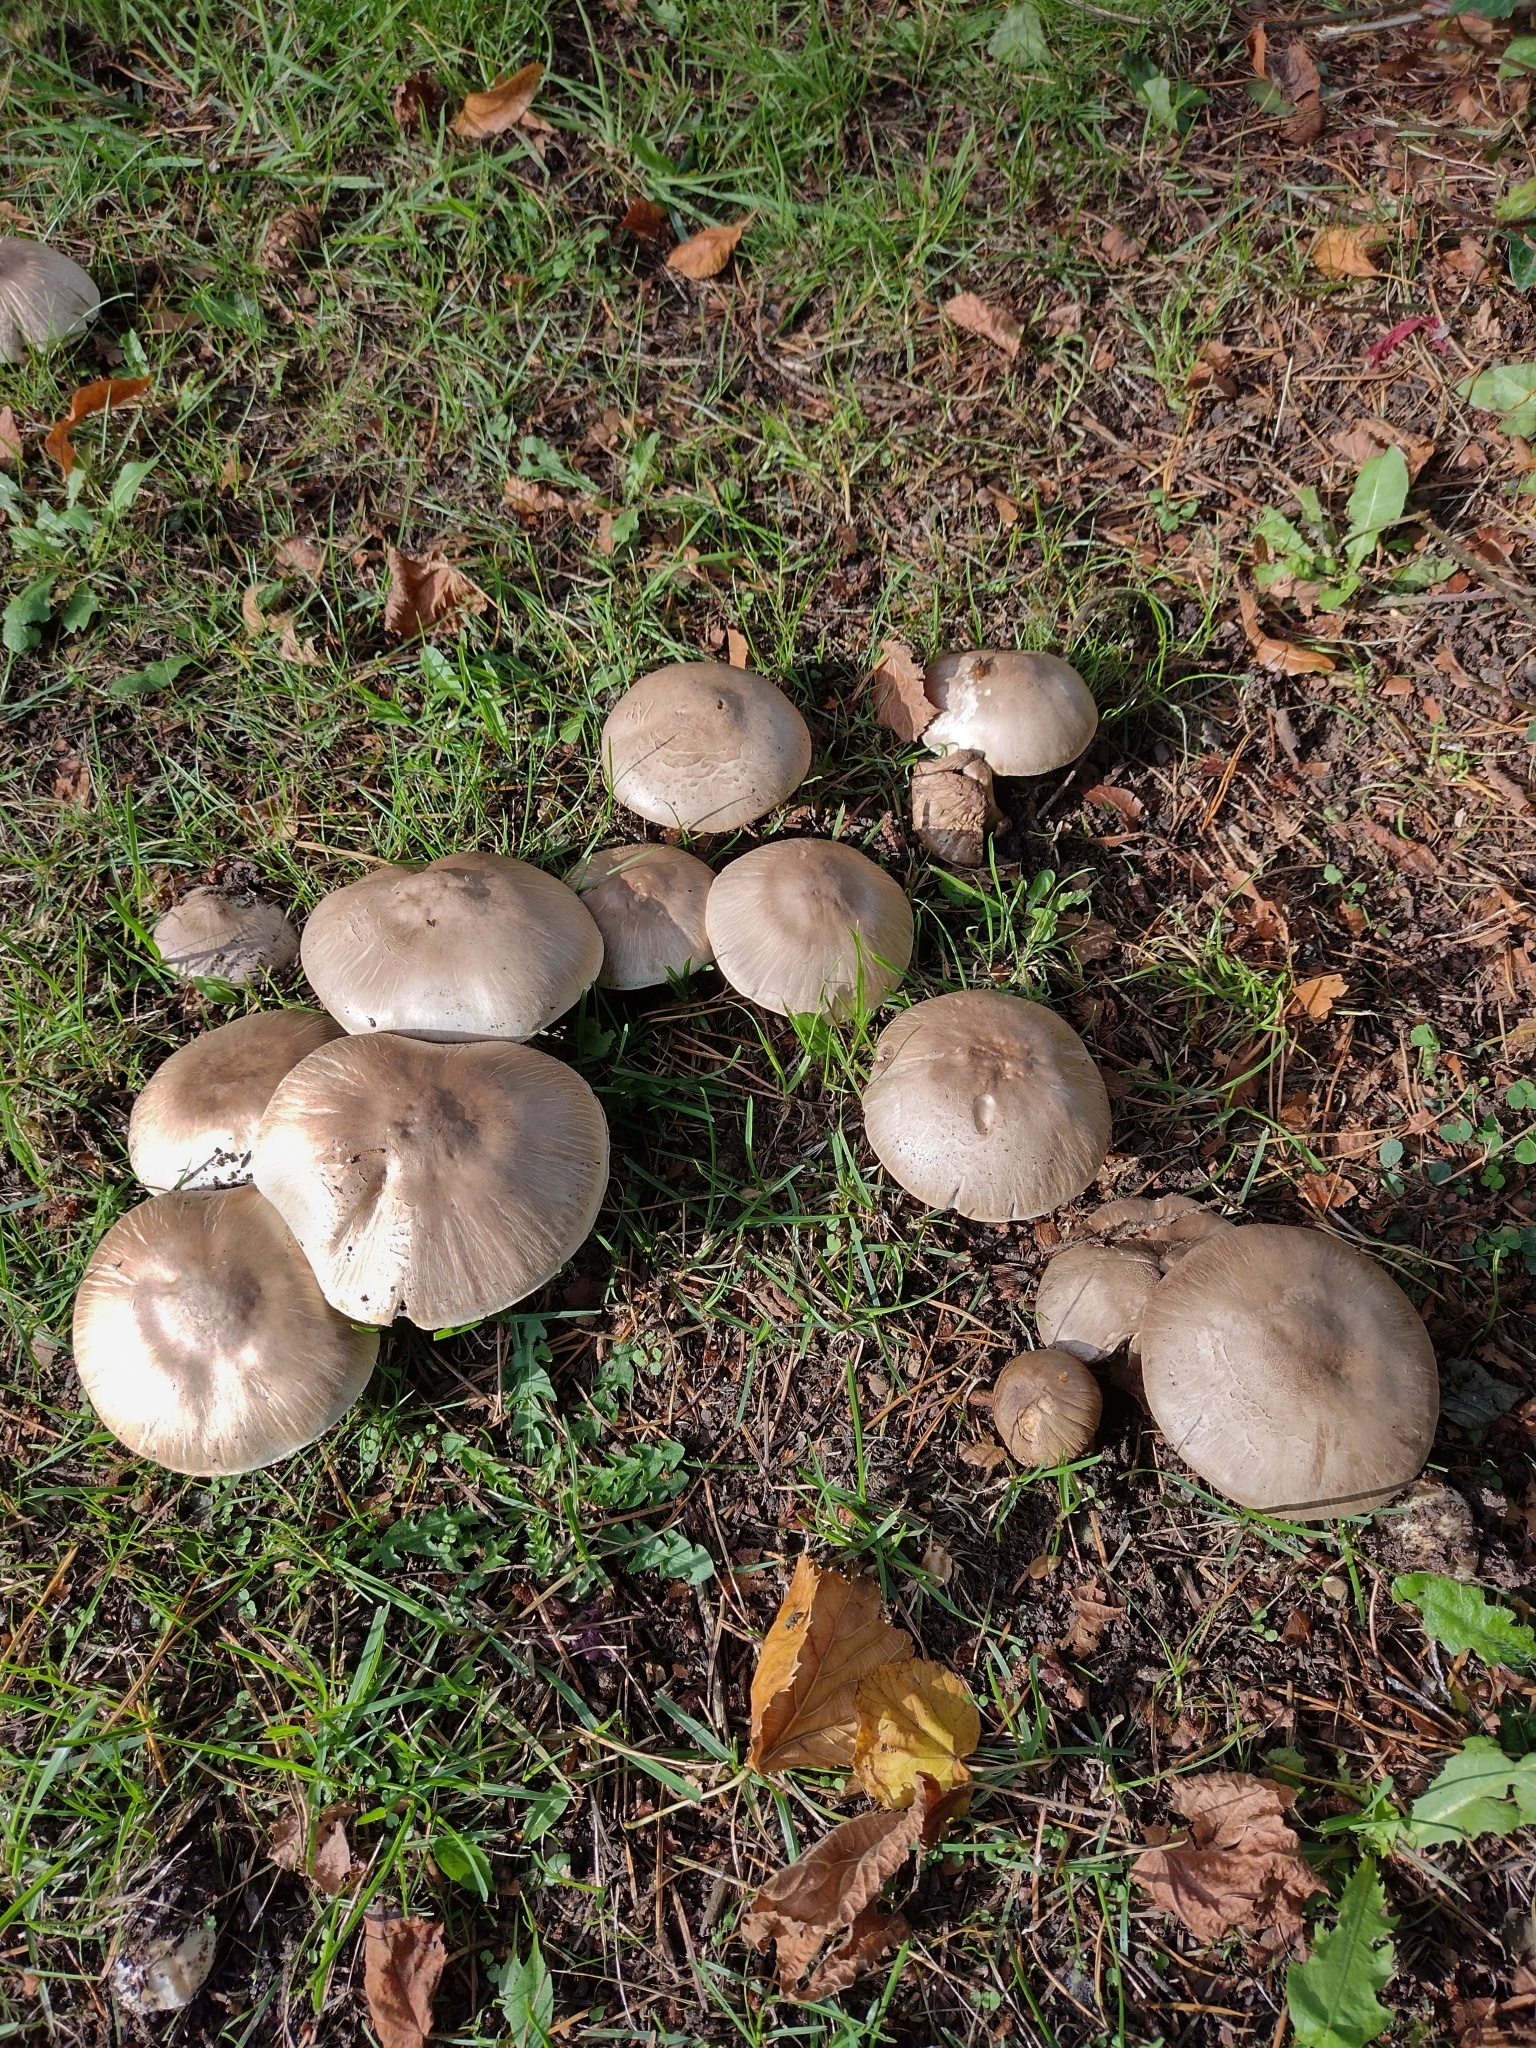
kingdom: Fungi
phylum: Basidiomycota
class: Agaricomycetes
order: Agaricales
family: Agaricaceae
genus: Agaricus
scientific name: Agaricus xanthodermus
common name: Yellow stainer
